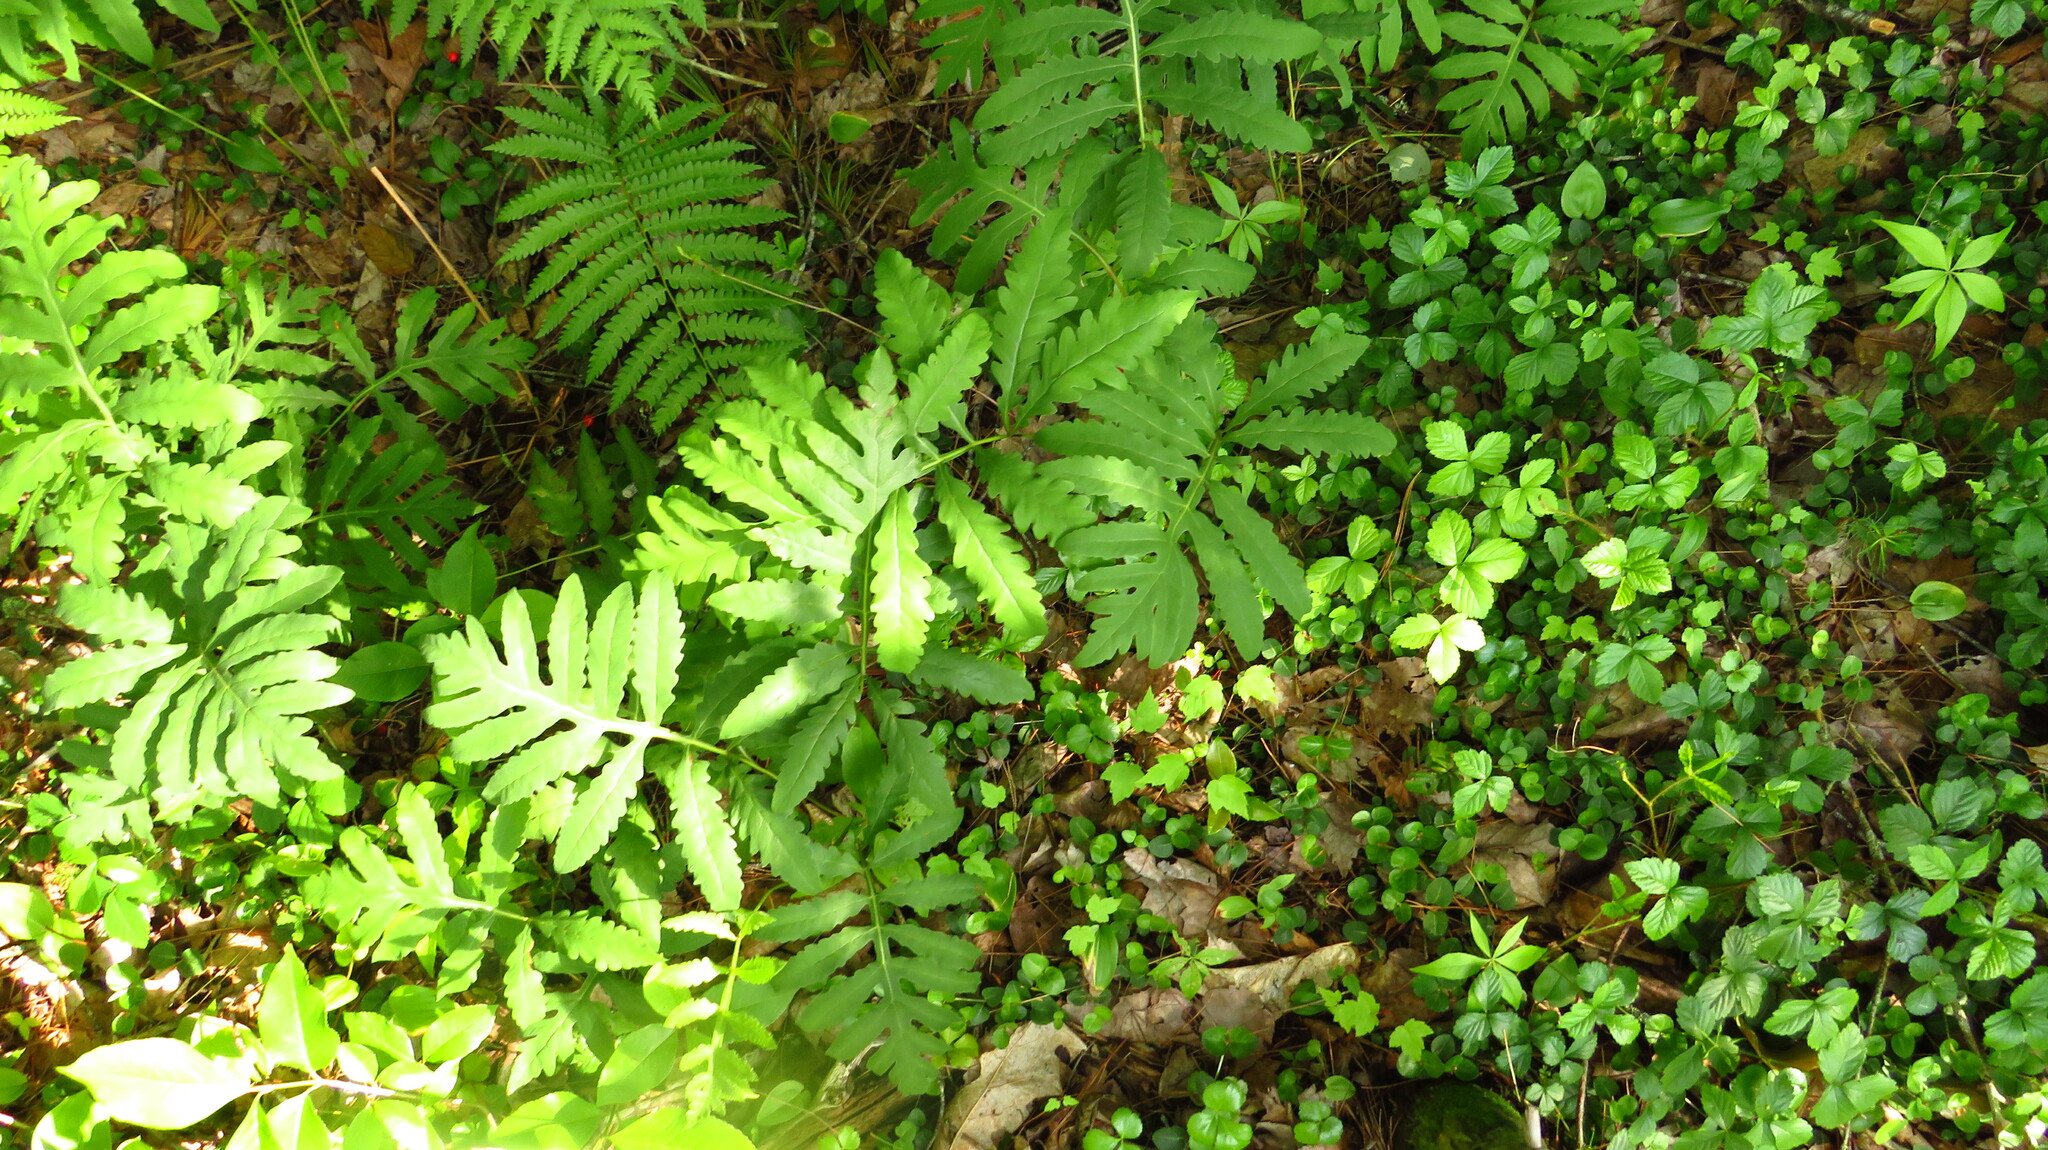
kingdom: Plantae
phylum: Tracheophyta
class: Polypodiopsida
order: Polypodiales
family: Onocleaceae
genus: Onoclea
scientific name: Onoclea sensibilis
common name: Sensitive fern
